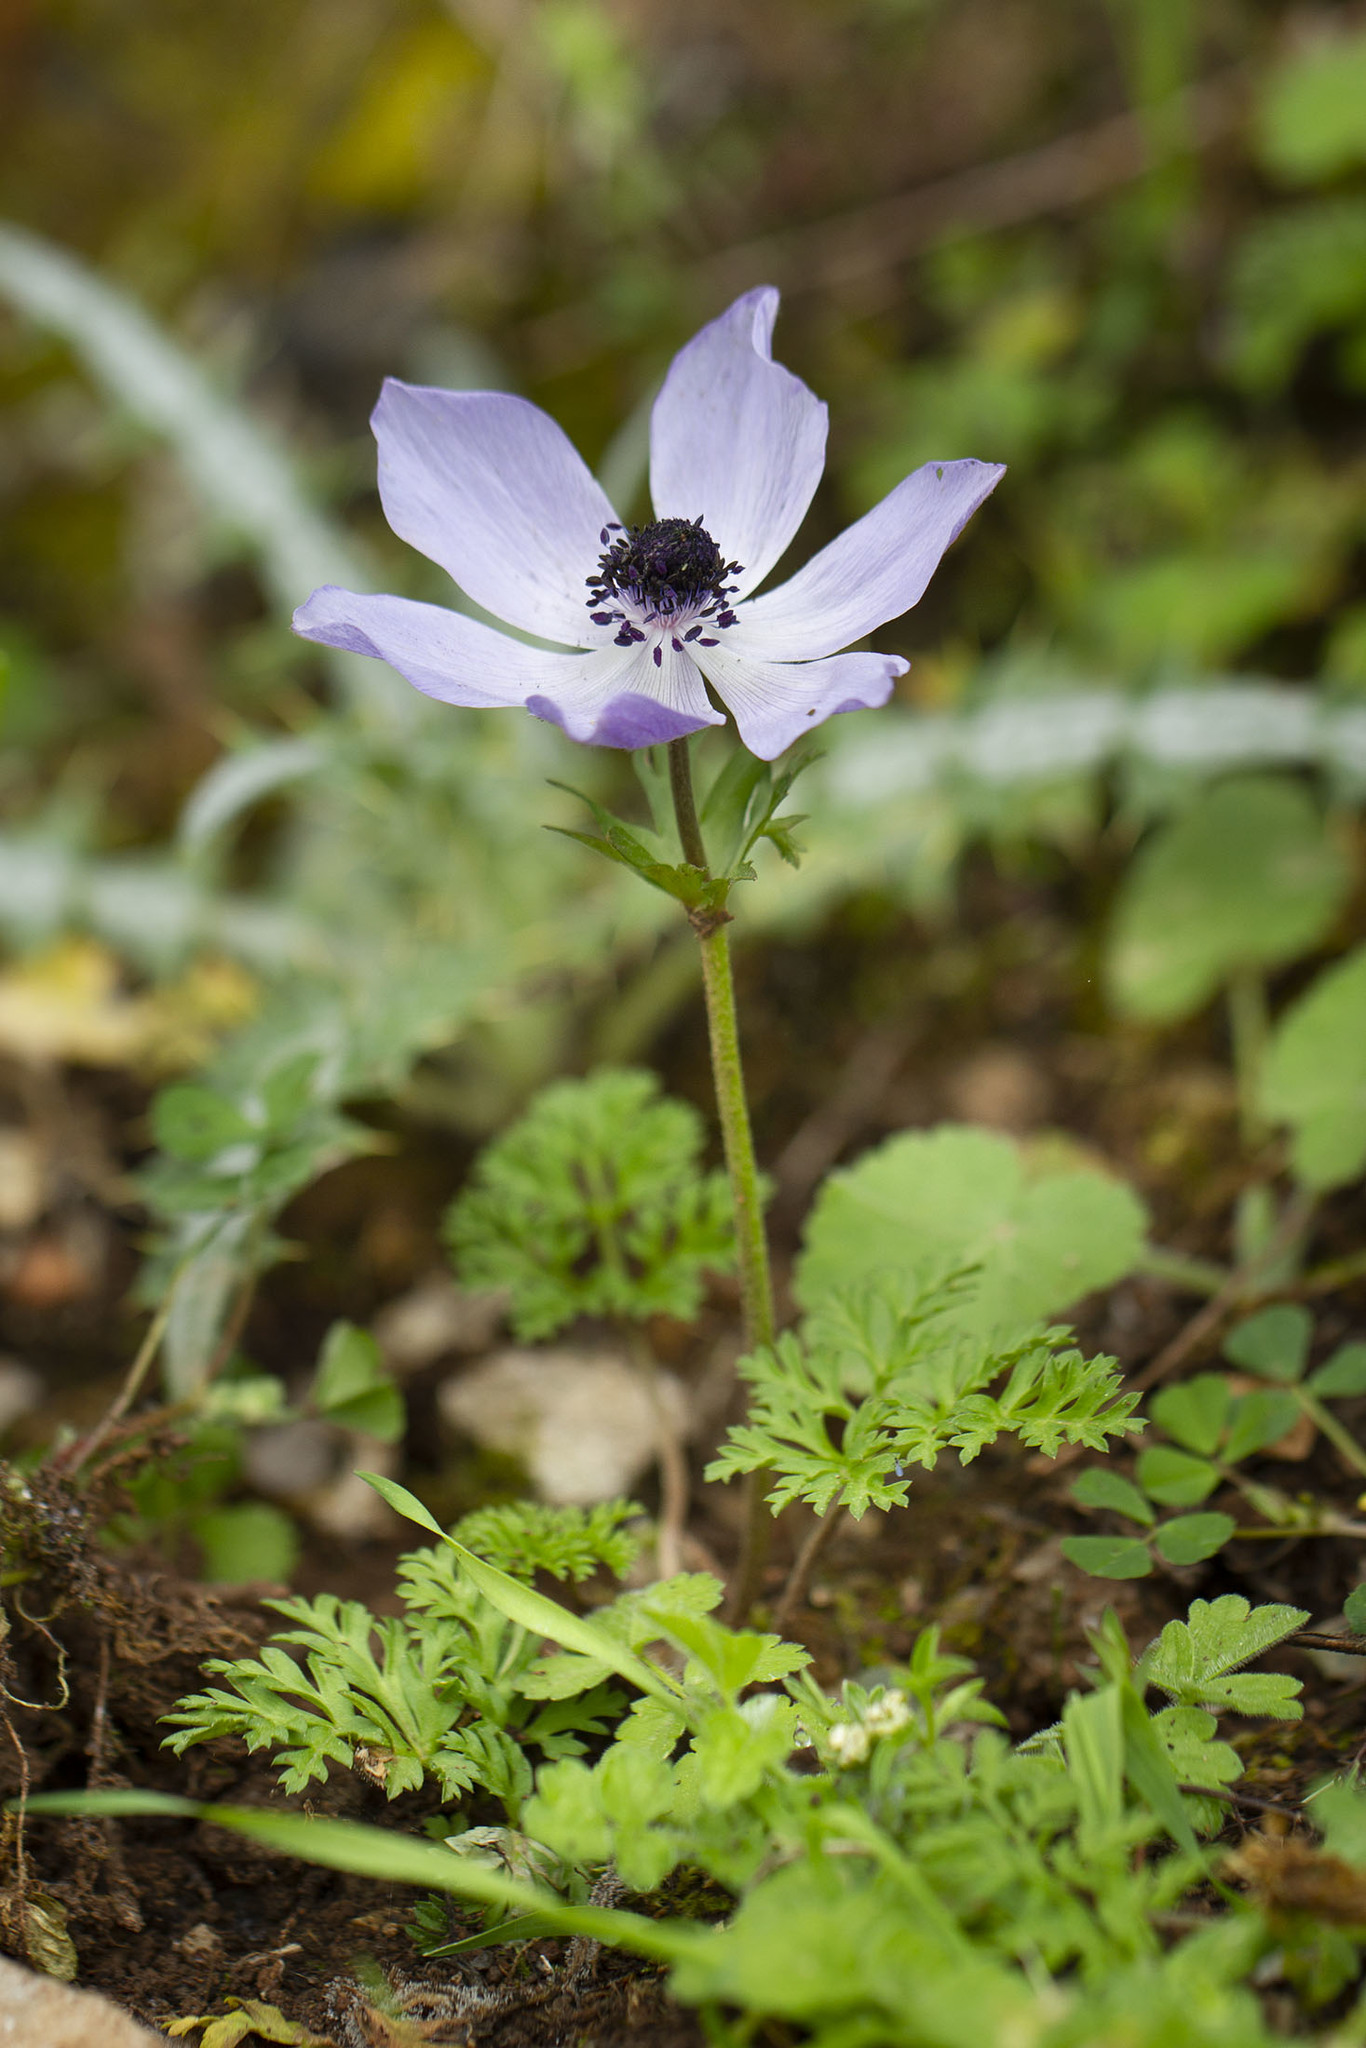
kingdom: Plantae
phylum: Tracheophyta
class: Magnoliopsida
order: Ranunculales
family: Ranunculaceae
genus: Anemone
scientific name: Anemone coronaria
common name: Poppy anemone
